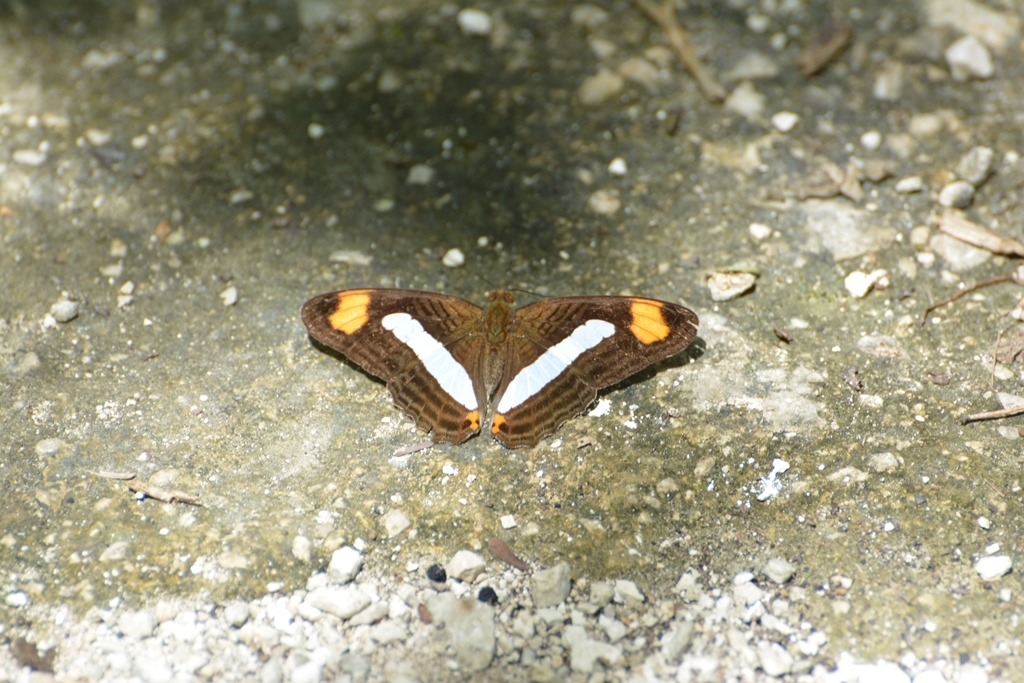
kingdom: Animalia
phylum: Arthropoda
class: Insecta
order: Lepidoptera
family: Nymphalidae
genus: Limenitis
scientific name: Limenitis iphiclus
